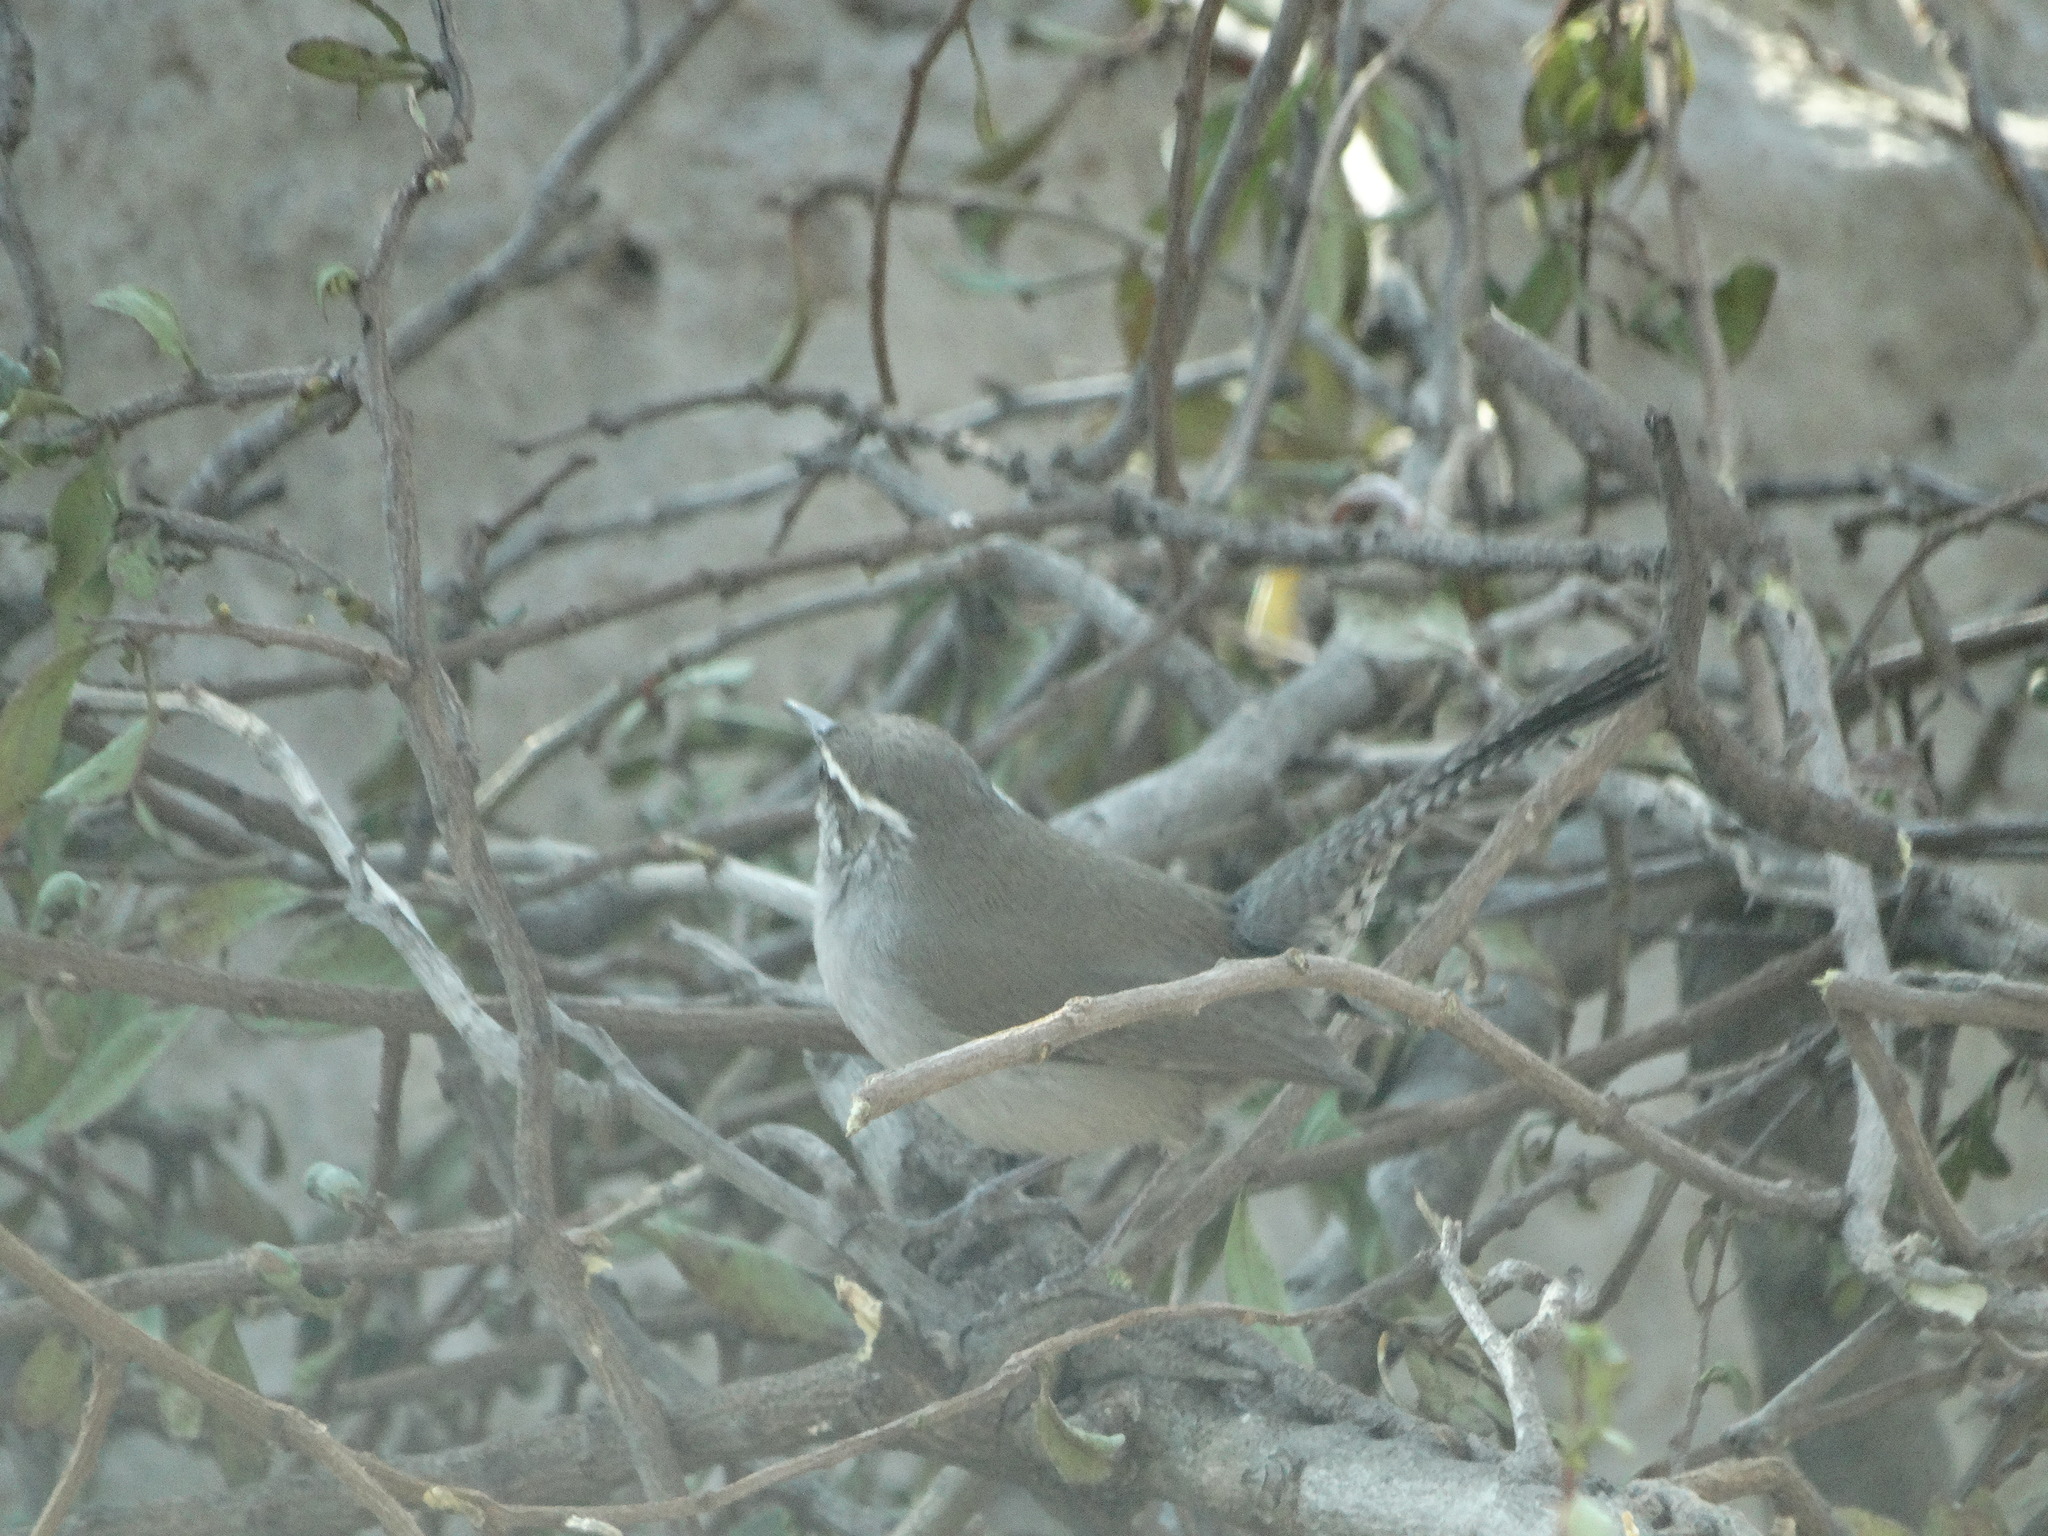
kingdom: Animalia
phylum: Chordata
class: Aves
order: Passeriformes
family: Troglodytidae
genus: Thryomanes
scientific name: Thryomanes bewickii
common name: Bewick's wren
